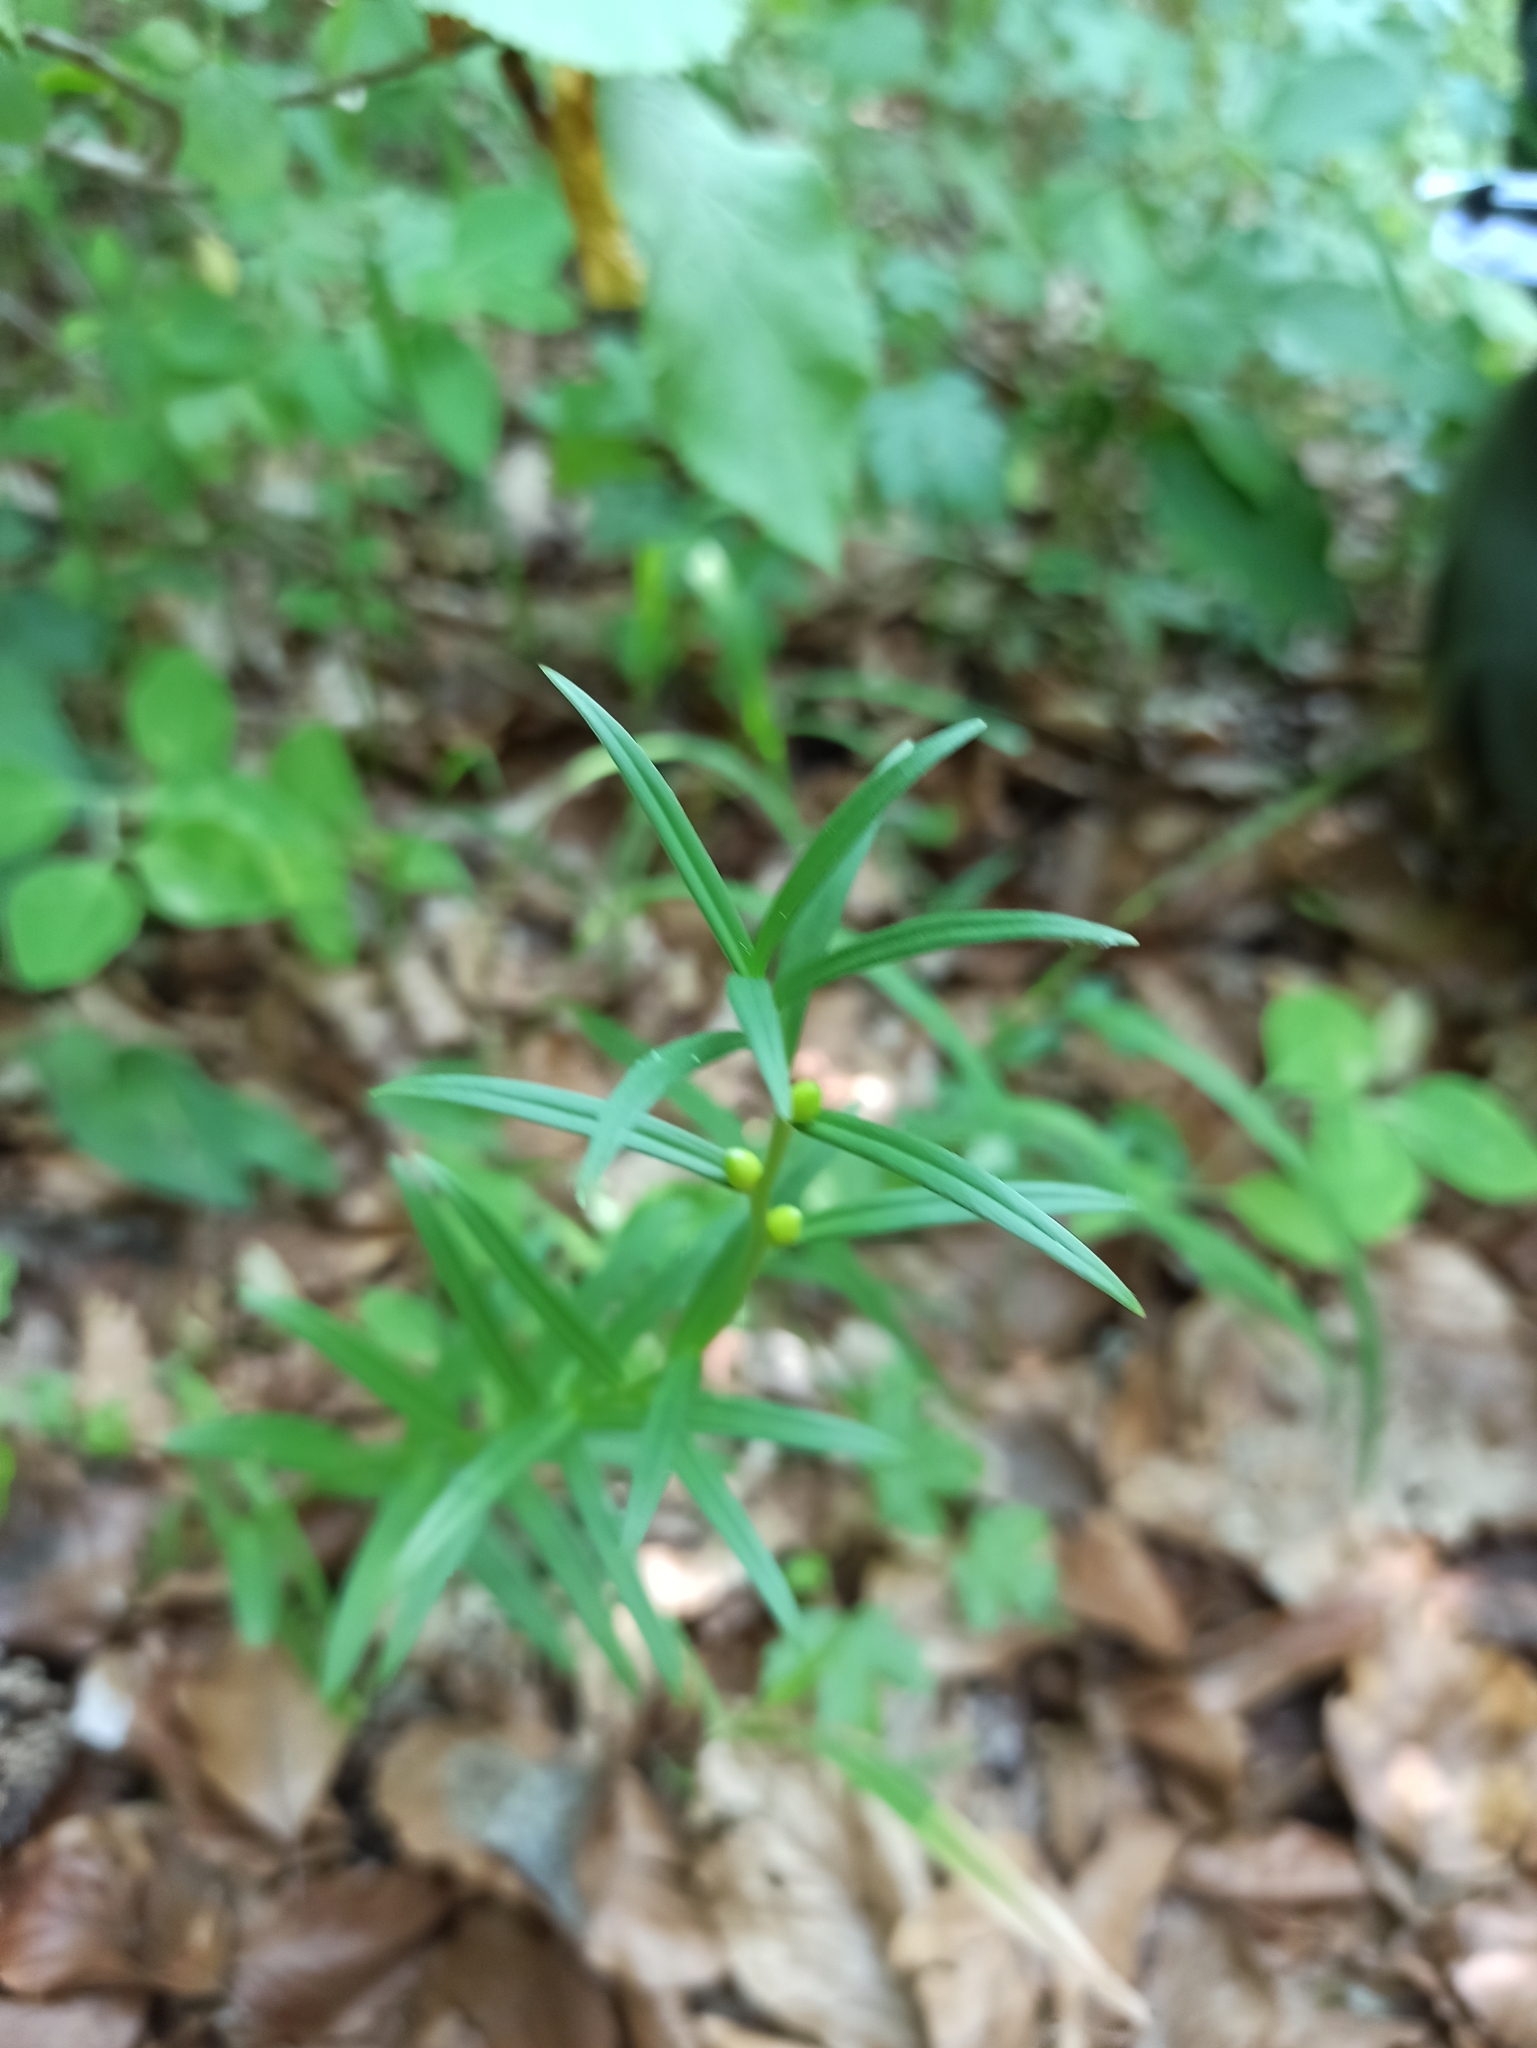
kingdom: Plantae
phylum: Tracheophyta
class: Liliopsida
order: Liliales
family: Liliaceae
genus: Lilium
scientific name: Lilium bulbiferum
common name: Orange lily
